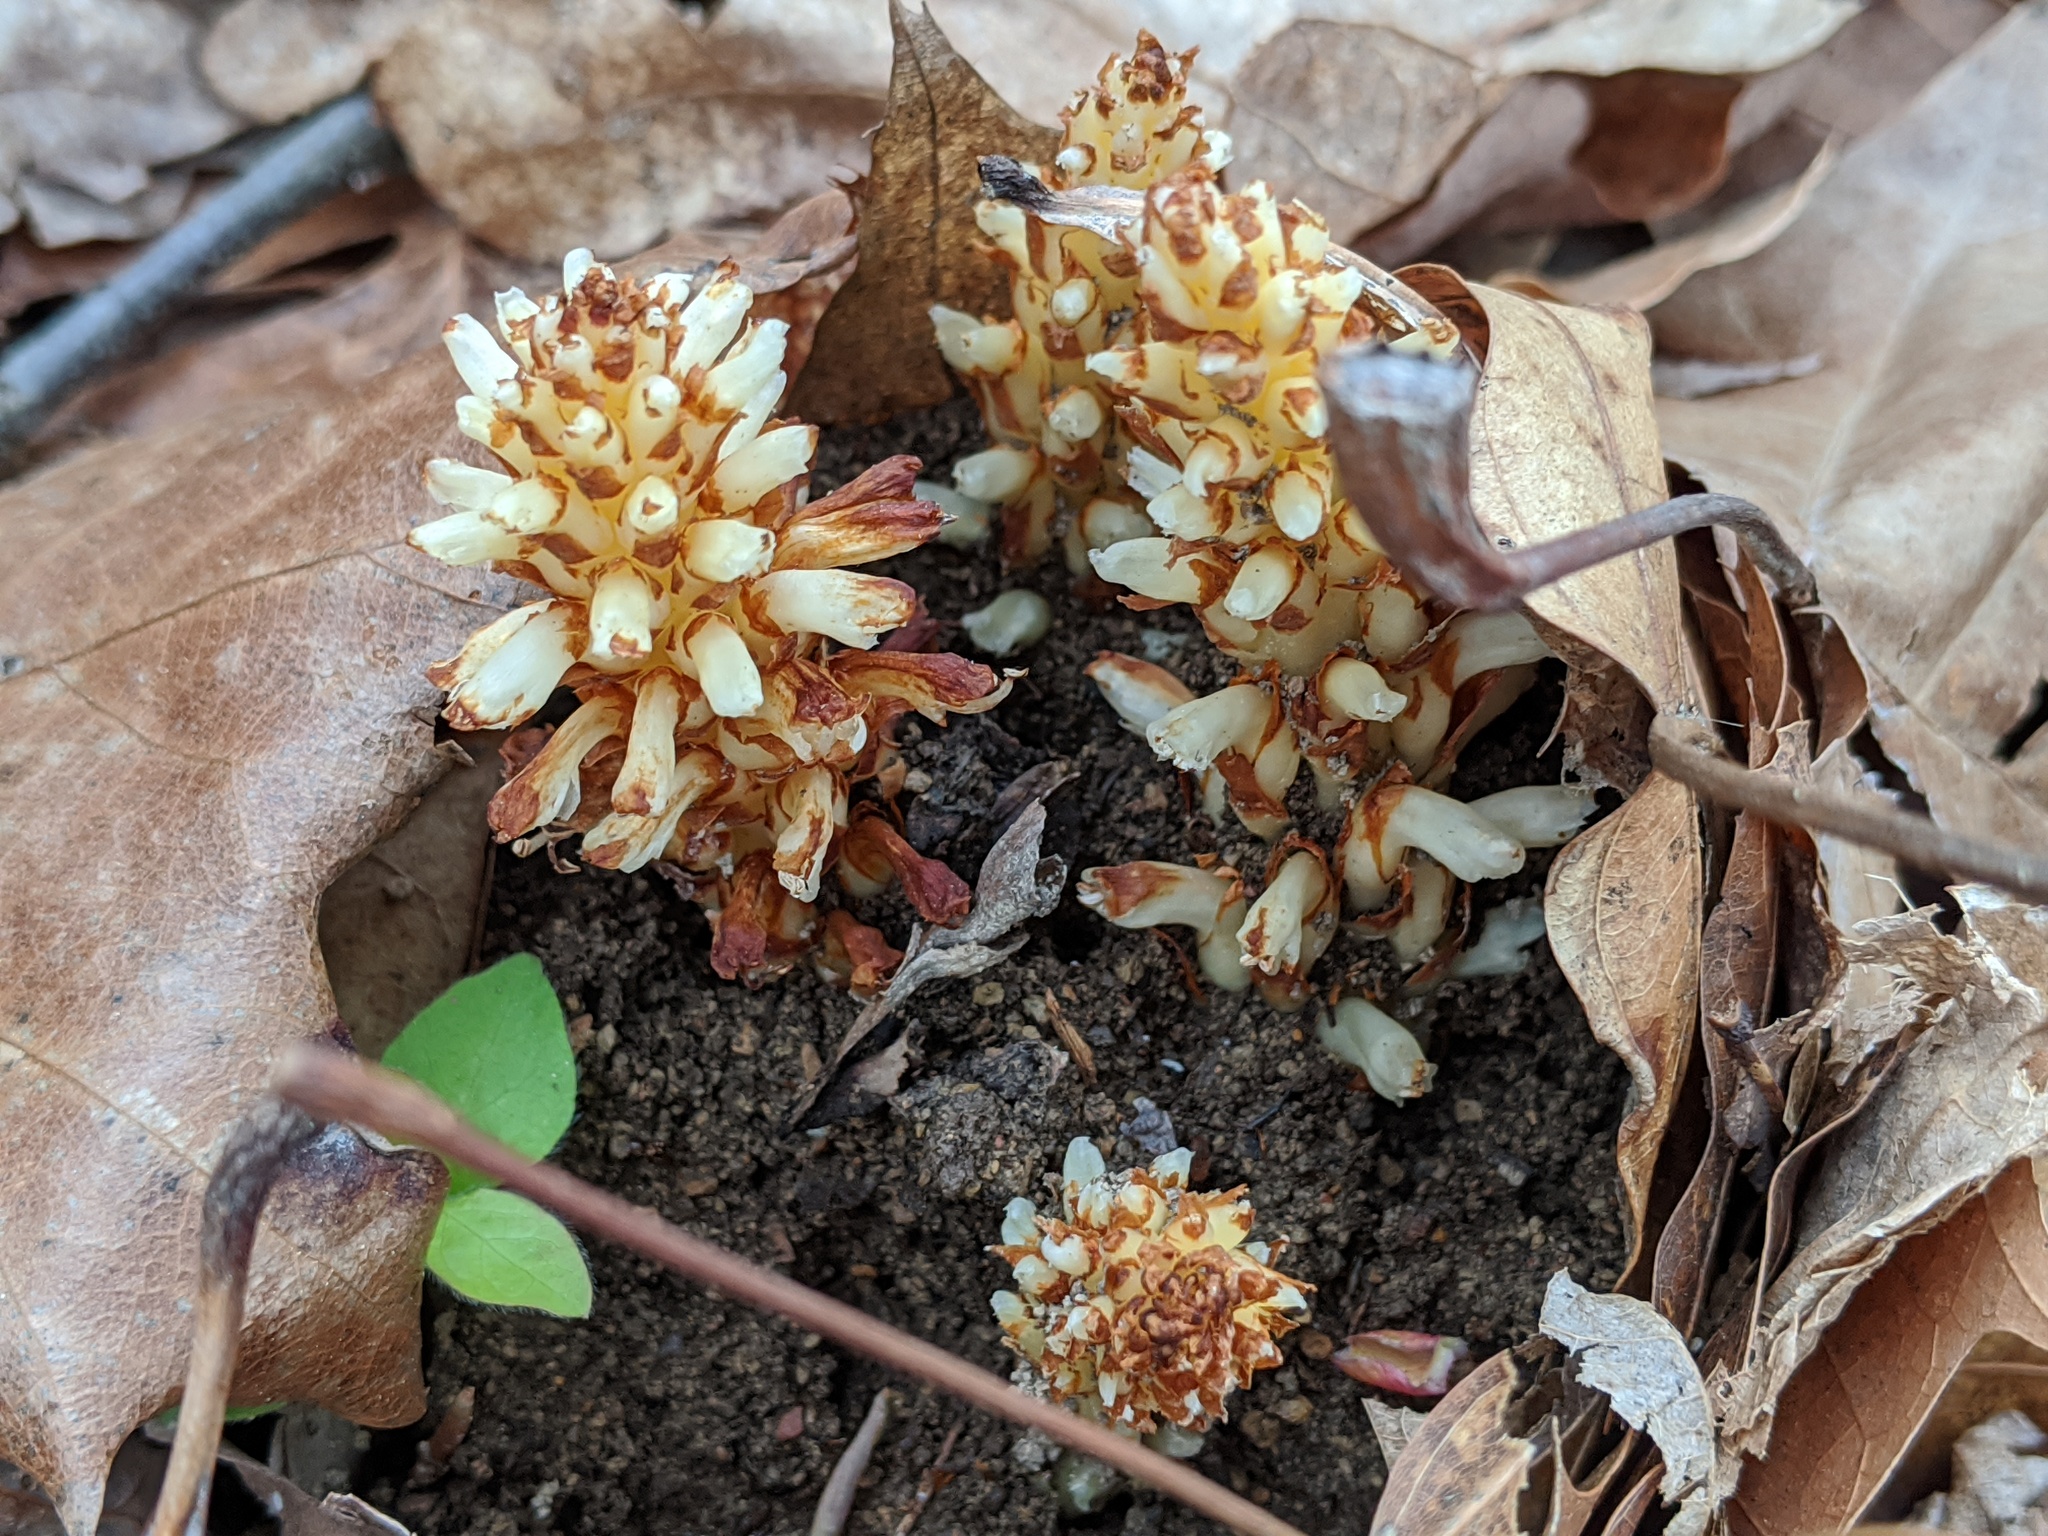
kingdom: Plantae
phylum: Tracheophyta
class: Magnoliopsida
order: Lamiales
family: Orobanchaceae
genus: Conopholis
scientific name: Conopholis americana
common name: American cancer-root
